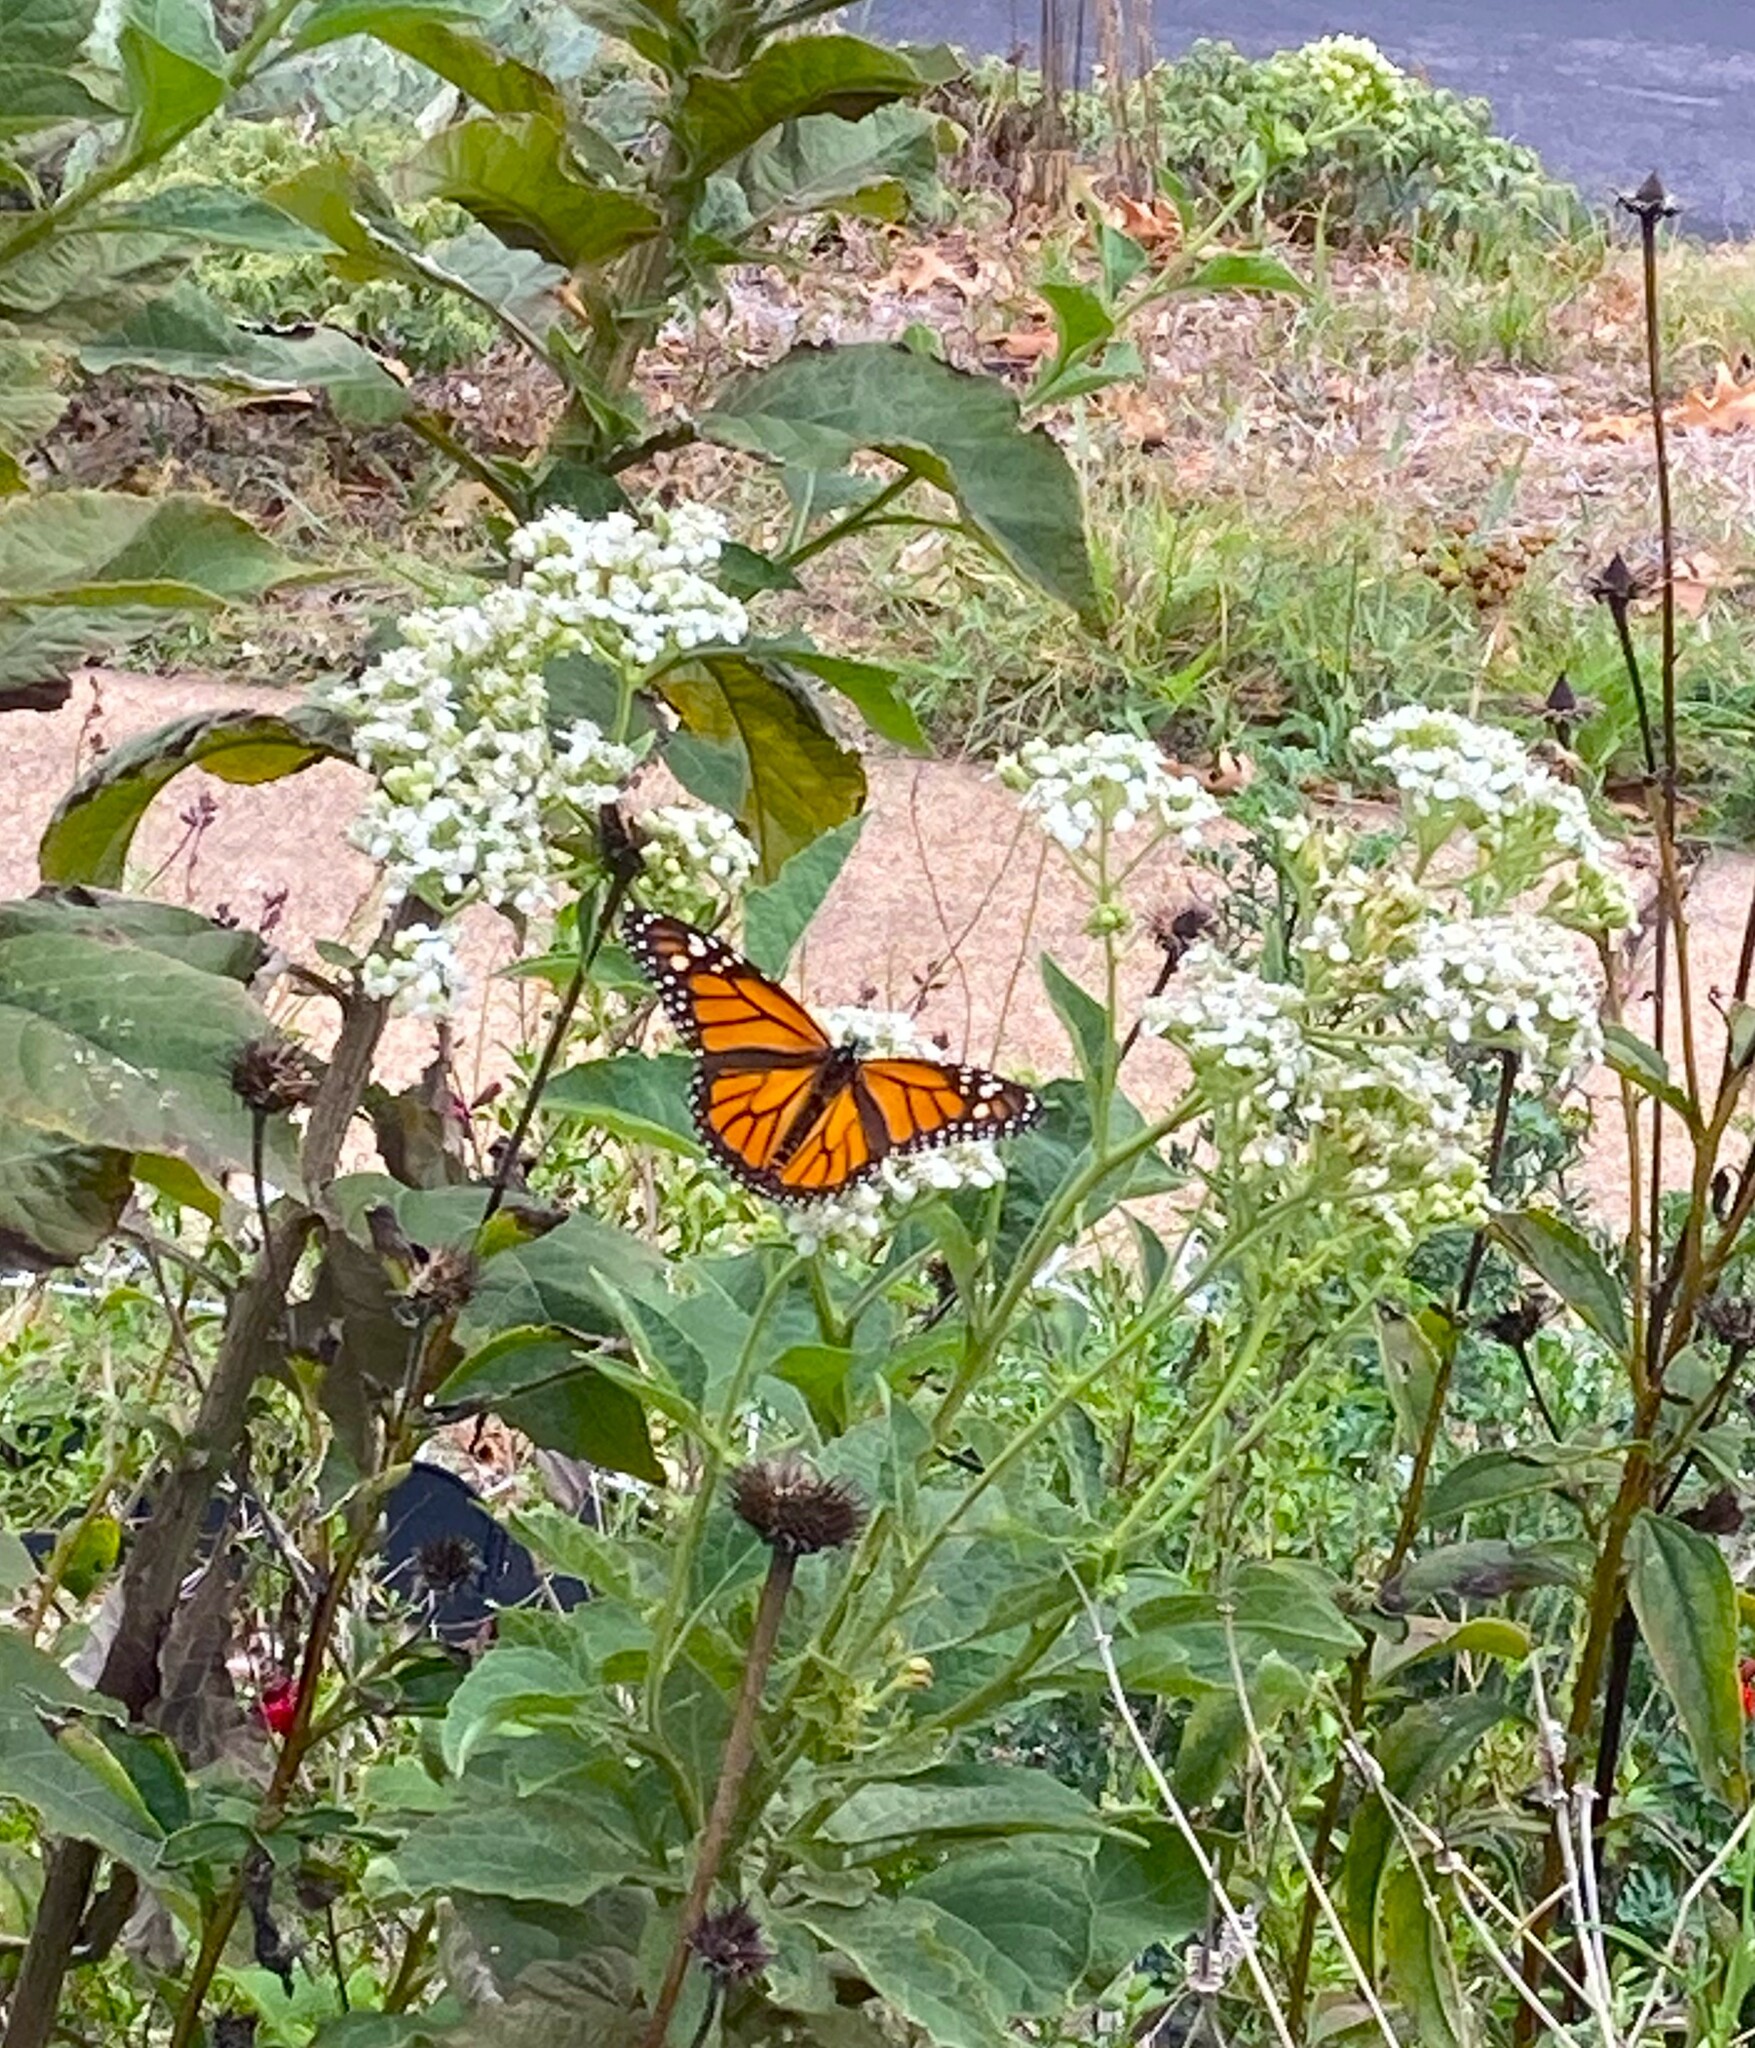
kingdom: Animalia
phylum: Arthropoda
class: Insecta
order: Lepidoptera
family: Nymphalidae
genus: Danaus
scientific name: Danaus plexippus
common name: Monarch
